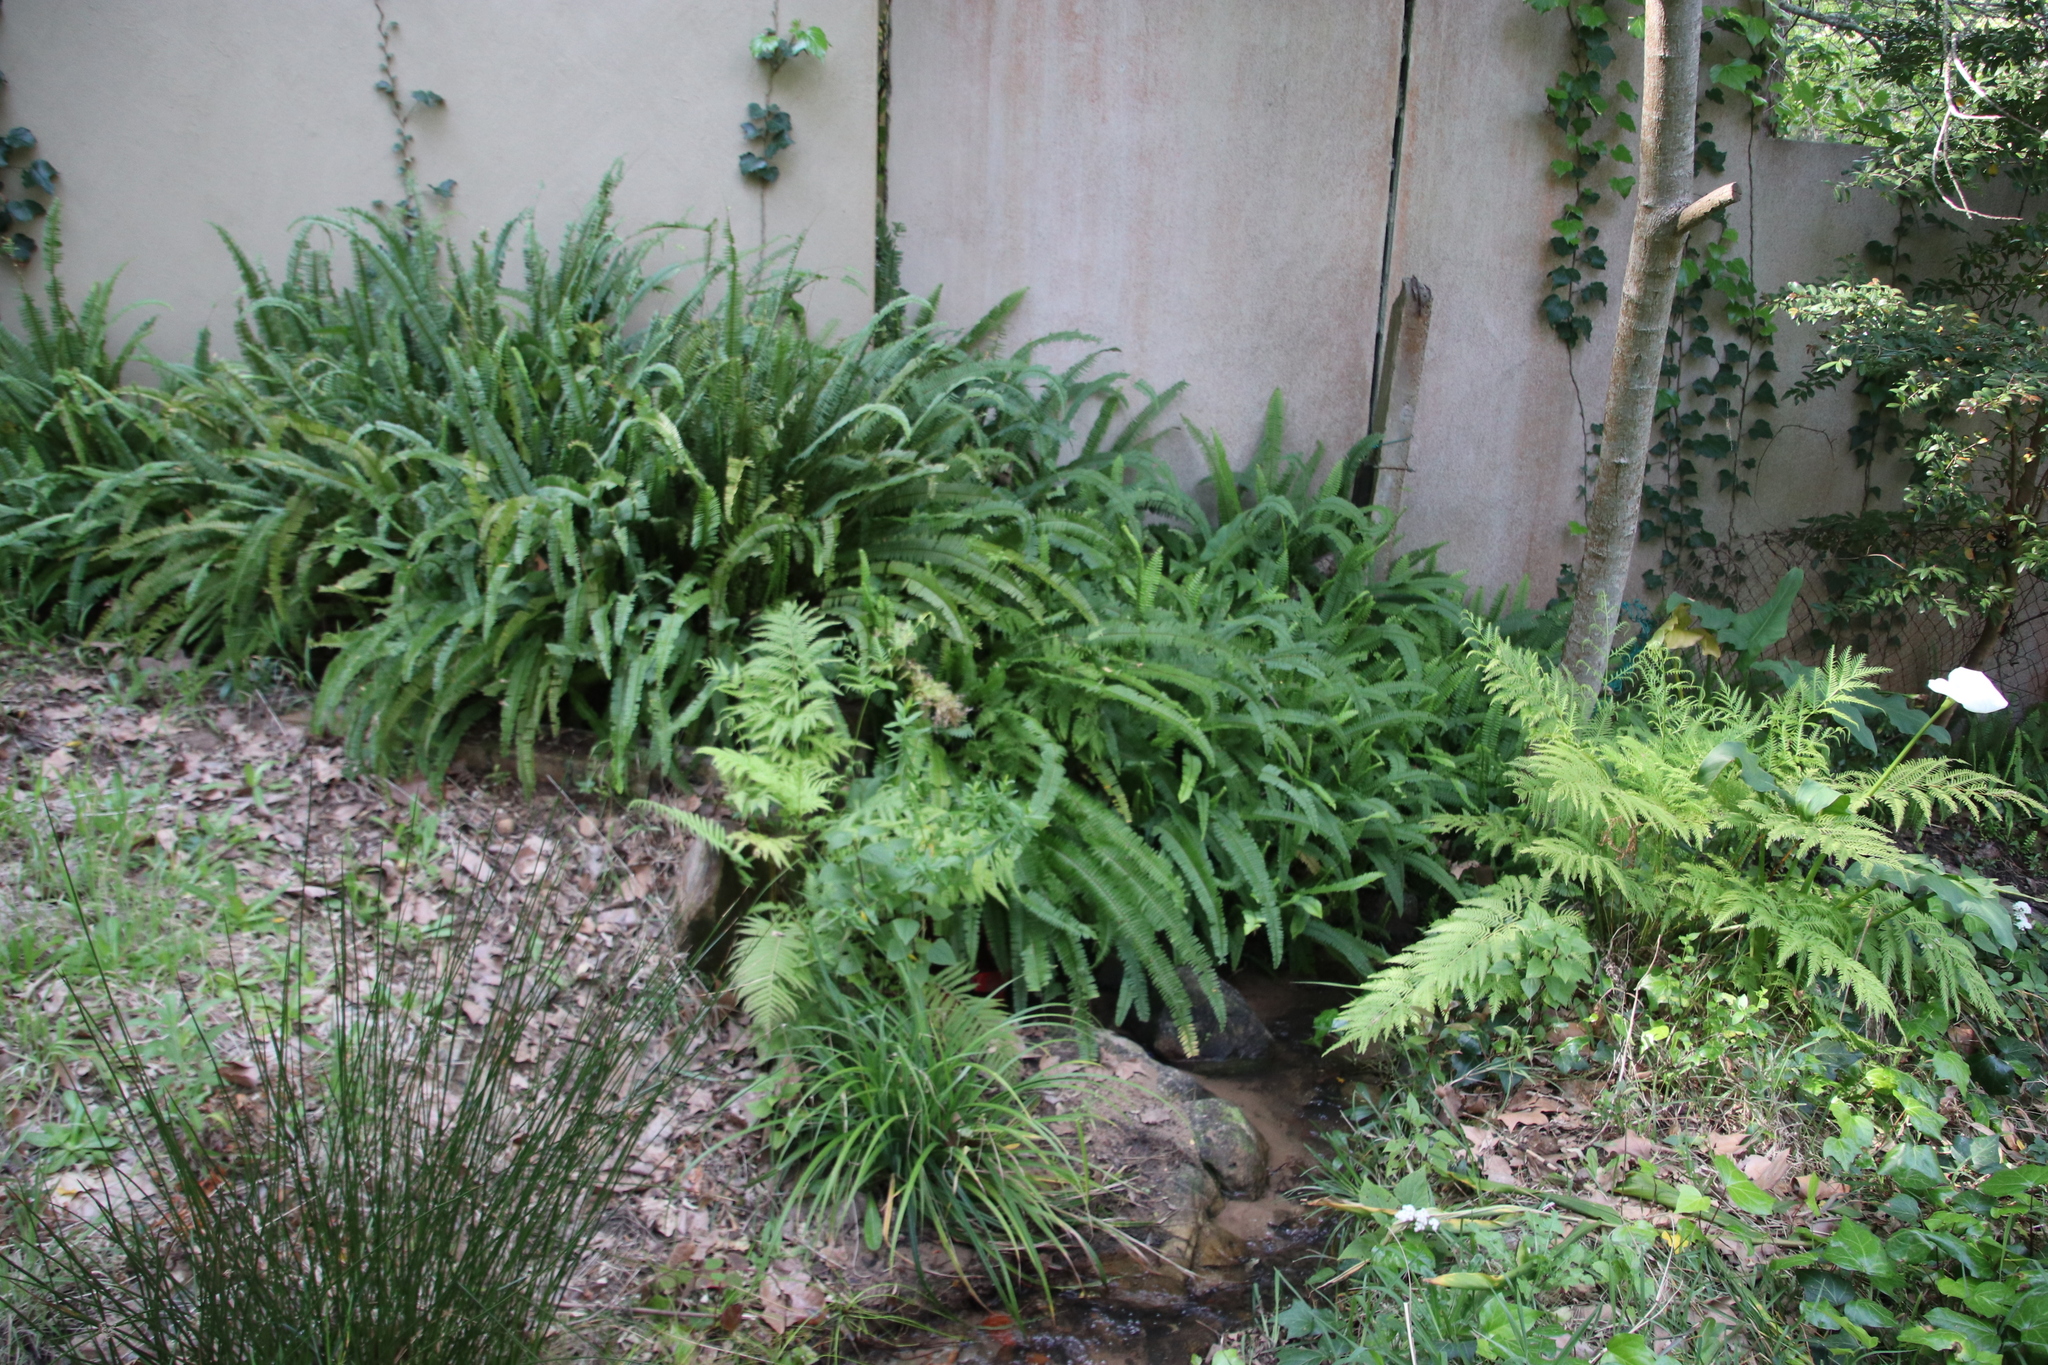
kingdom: Plantae
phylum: Tracheophyta
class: Polypodiopsida
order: Polypodiales
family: Nephrolepidaceae
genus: Nephrolepis
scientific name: Nephrolepis cordifolia
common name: Narrow swordfern
